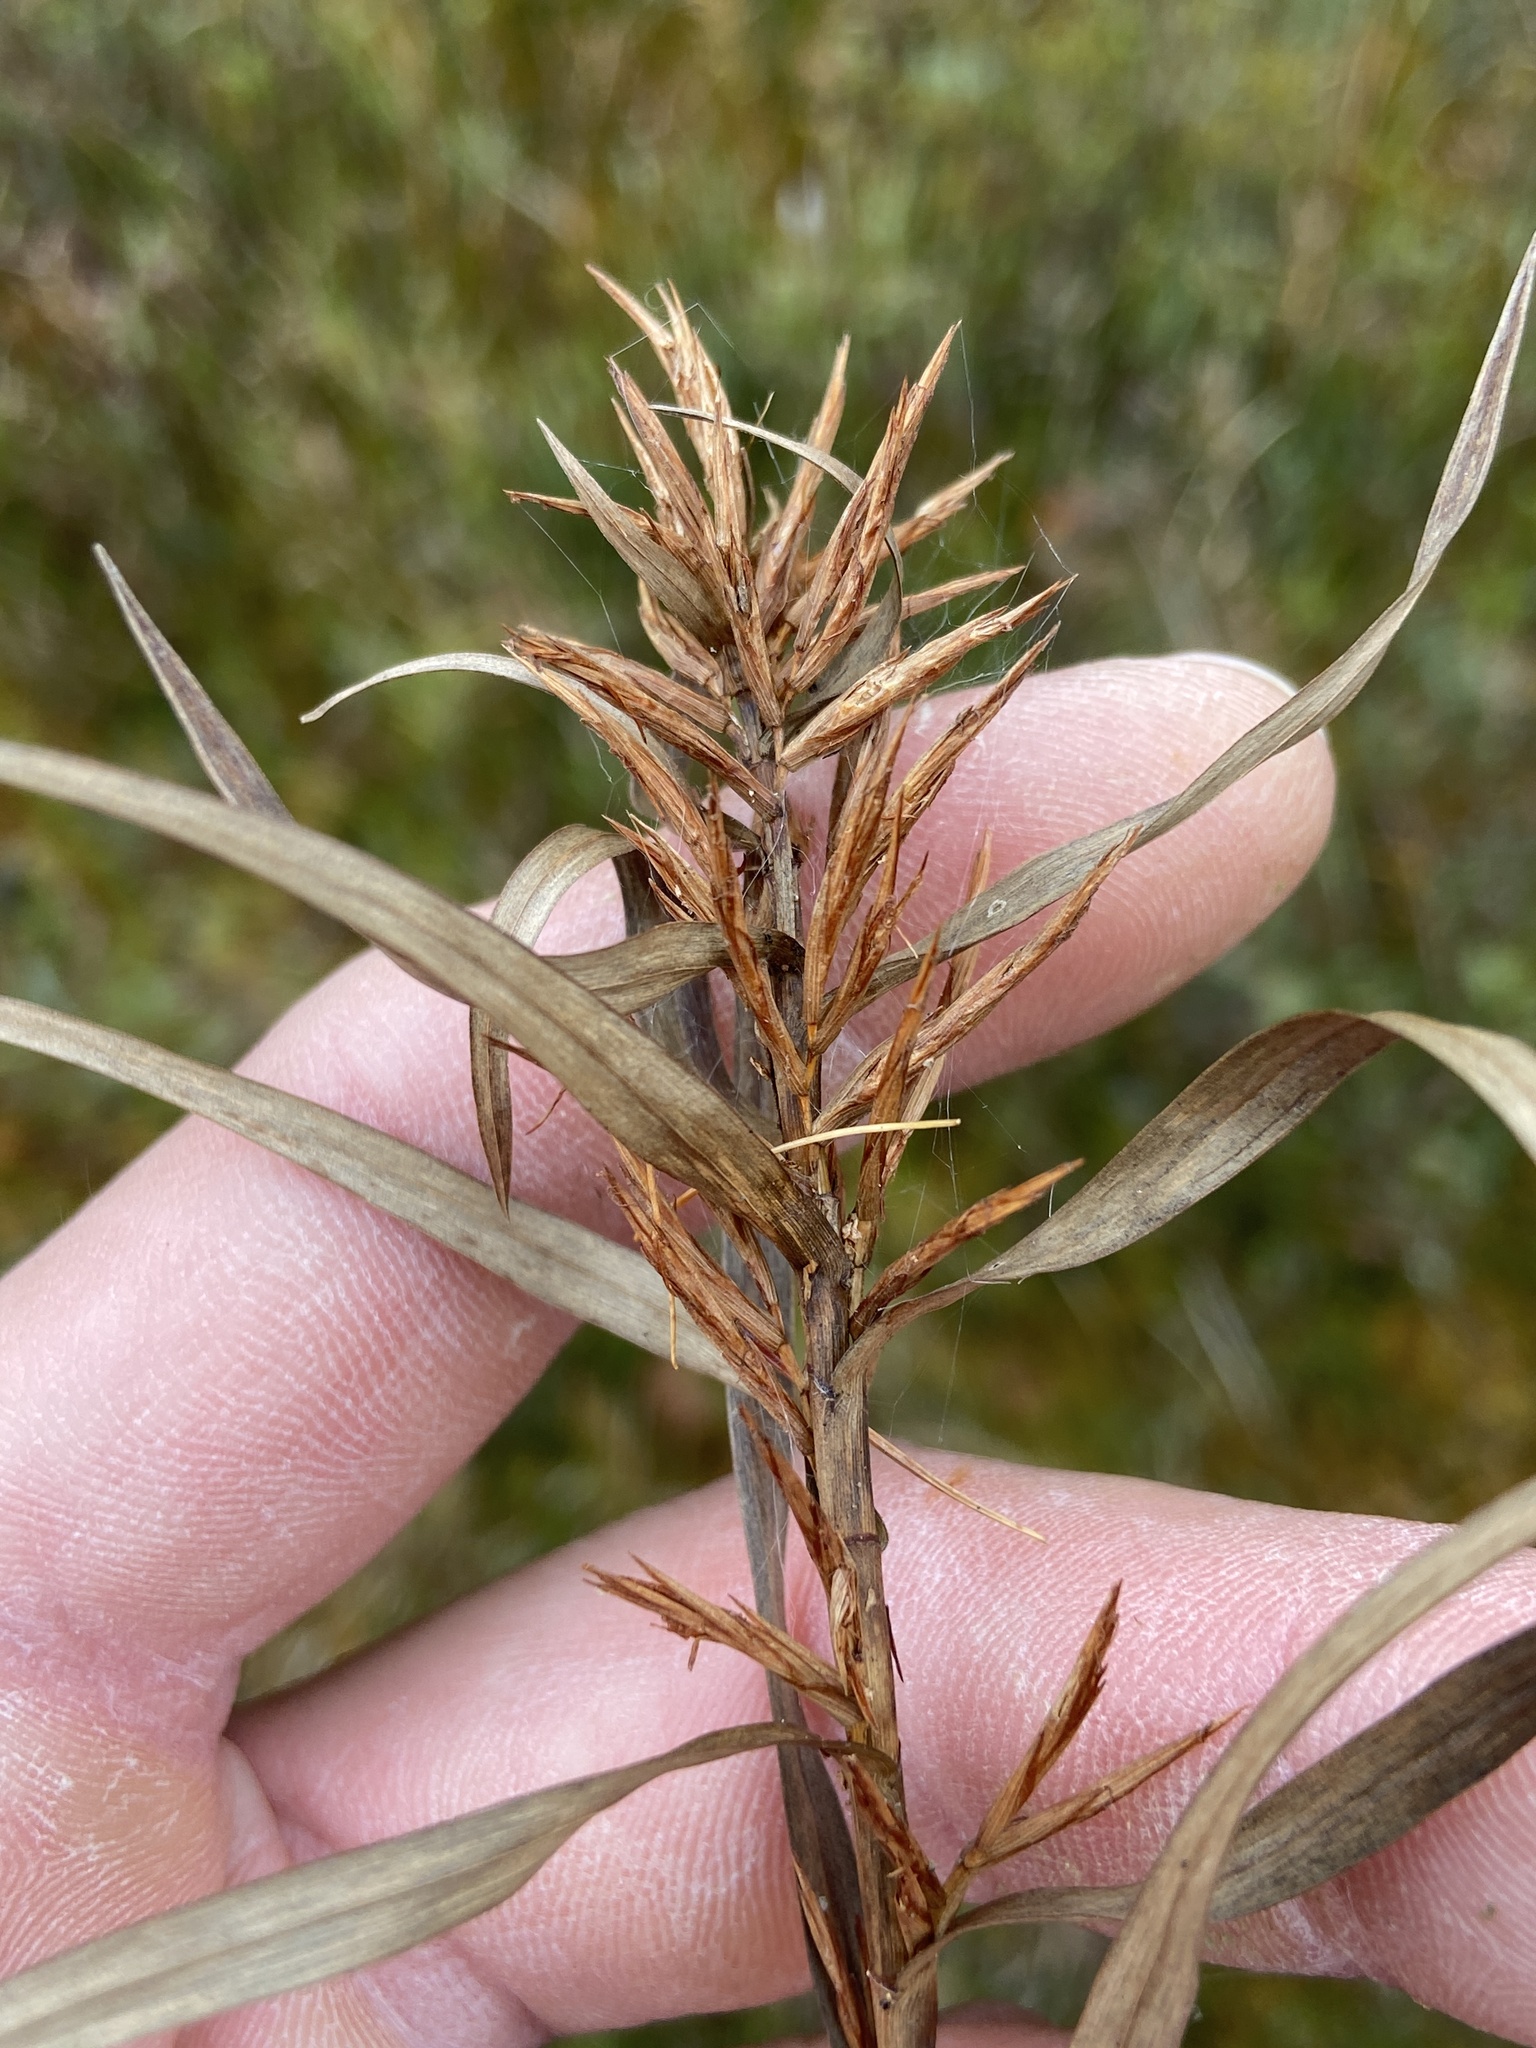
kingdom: Plantae
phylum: Tracheophyta
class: Liliopsida
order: Poales
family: Cyperaceae
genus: Dulichium
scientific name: Dulichium arundinaceum
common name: Three-way sedge
